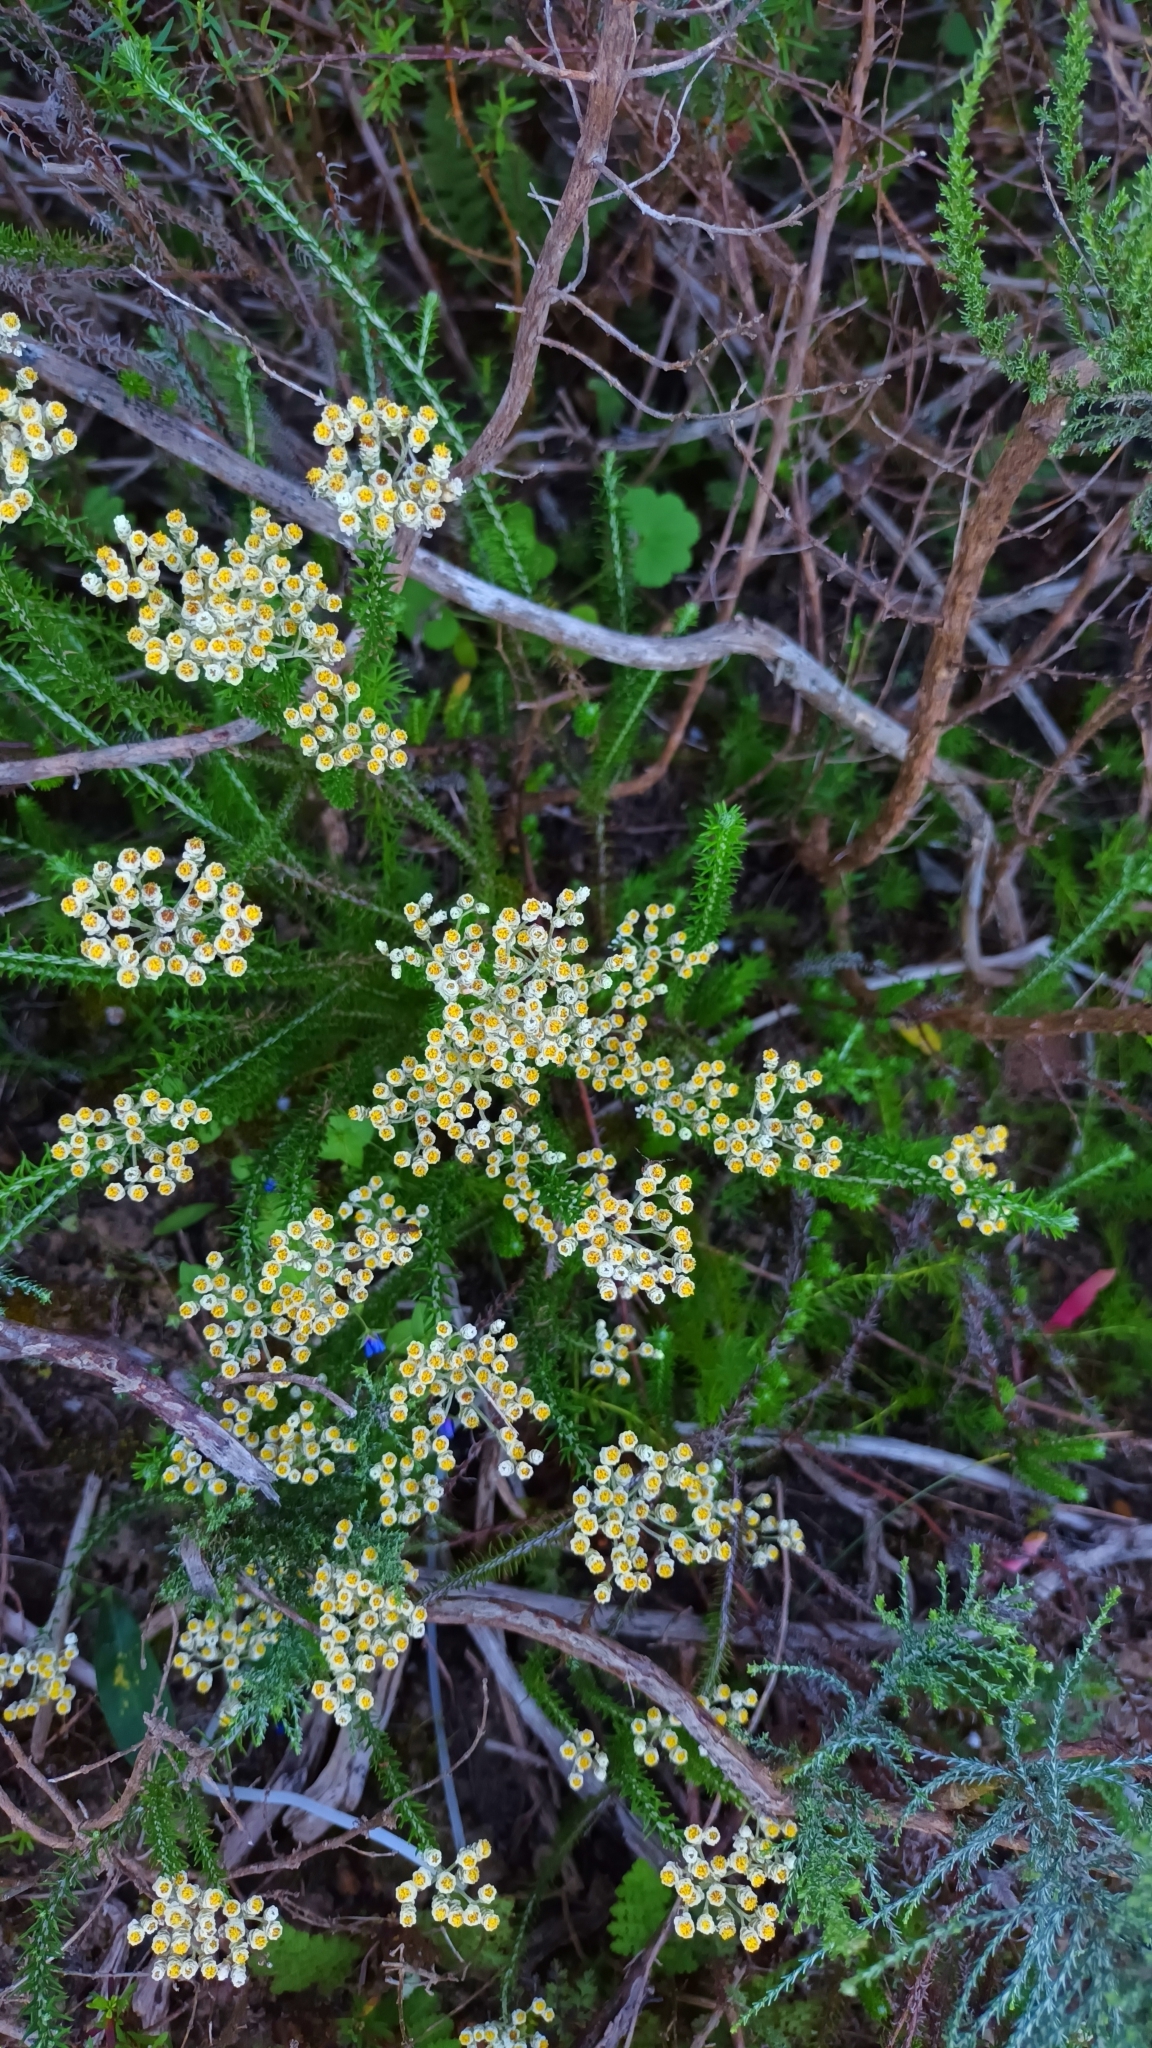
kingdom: Plantae
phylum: Tracheophyta
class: Magnoliopsida
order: Asterales
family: Asteraceae
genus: Helichrysum
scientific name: Helichrysum teretifolium
